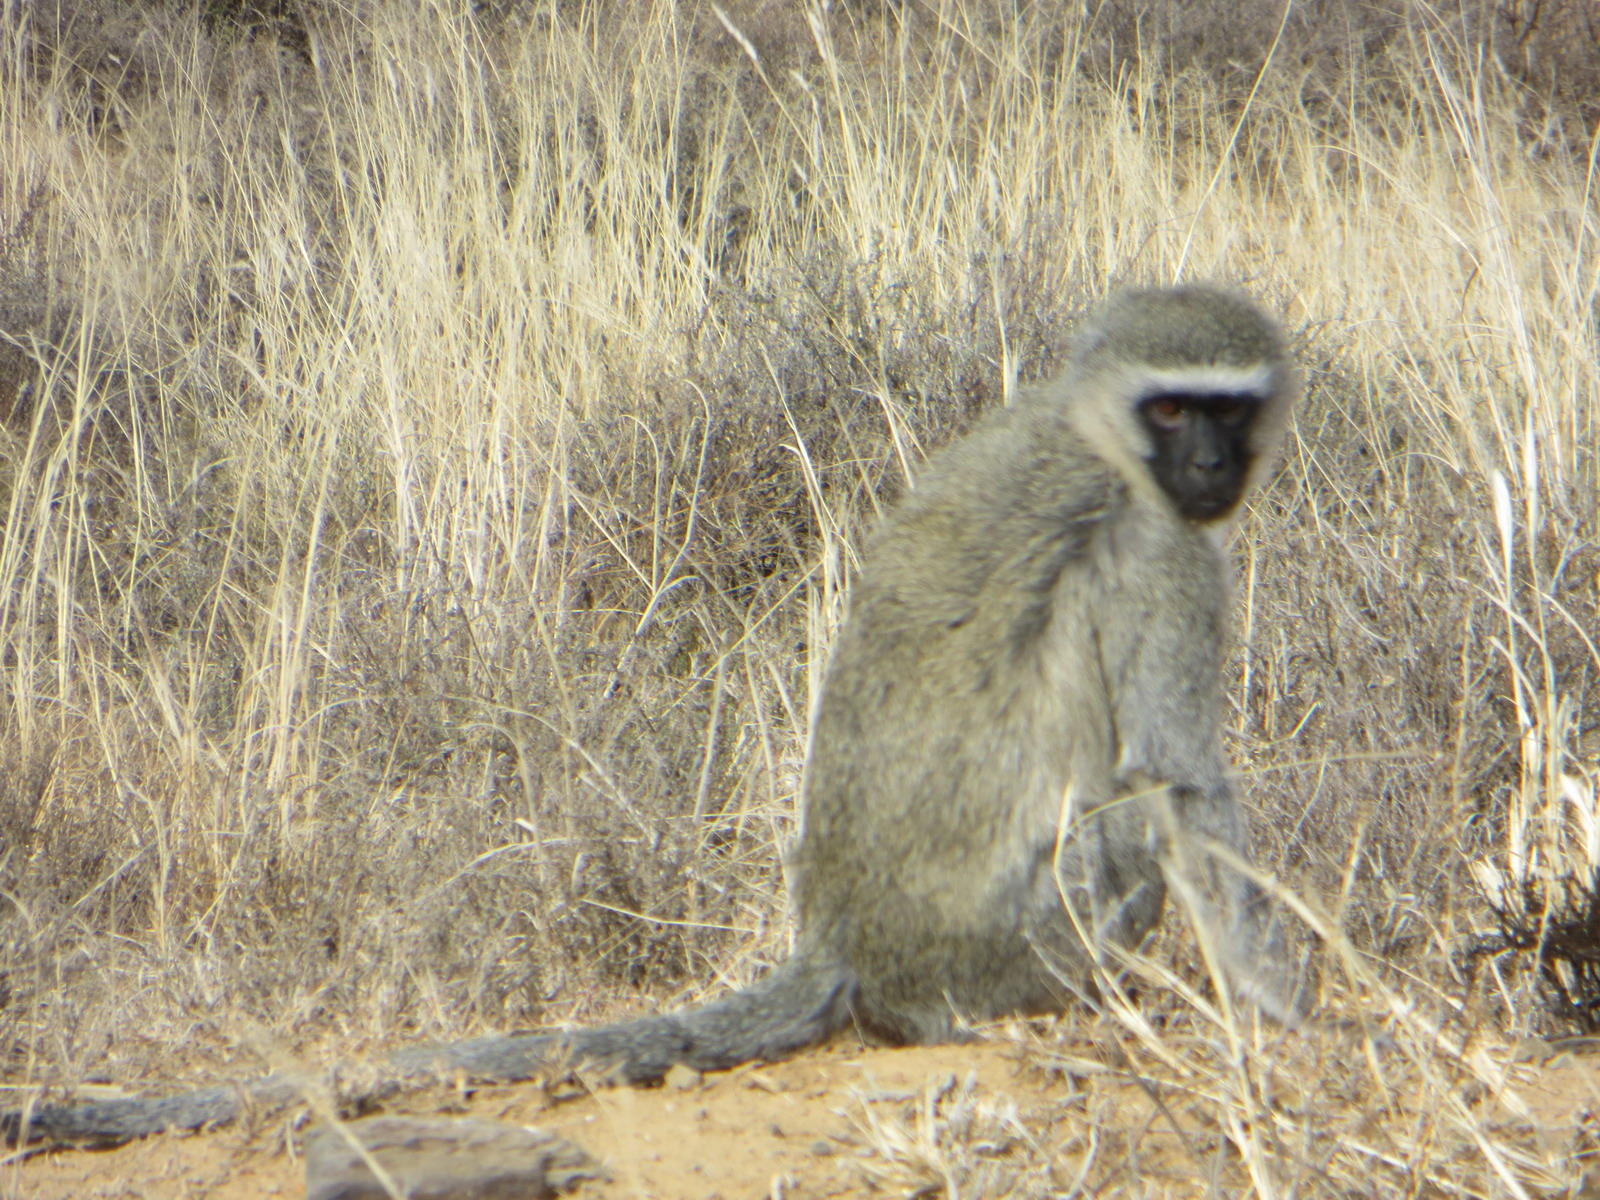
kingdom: Animalia
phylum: Chordata
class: Mammalia
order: Primates
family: Cercopithecidae
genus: Chlorocebus
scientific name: Chlorocebus pygerythrus
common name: Vervet monkey
